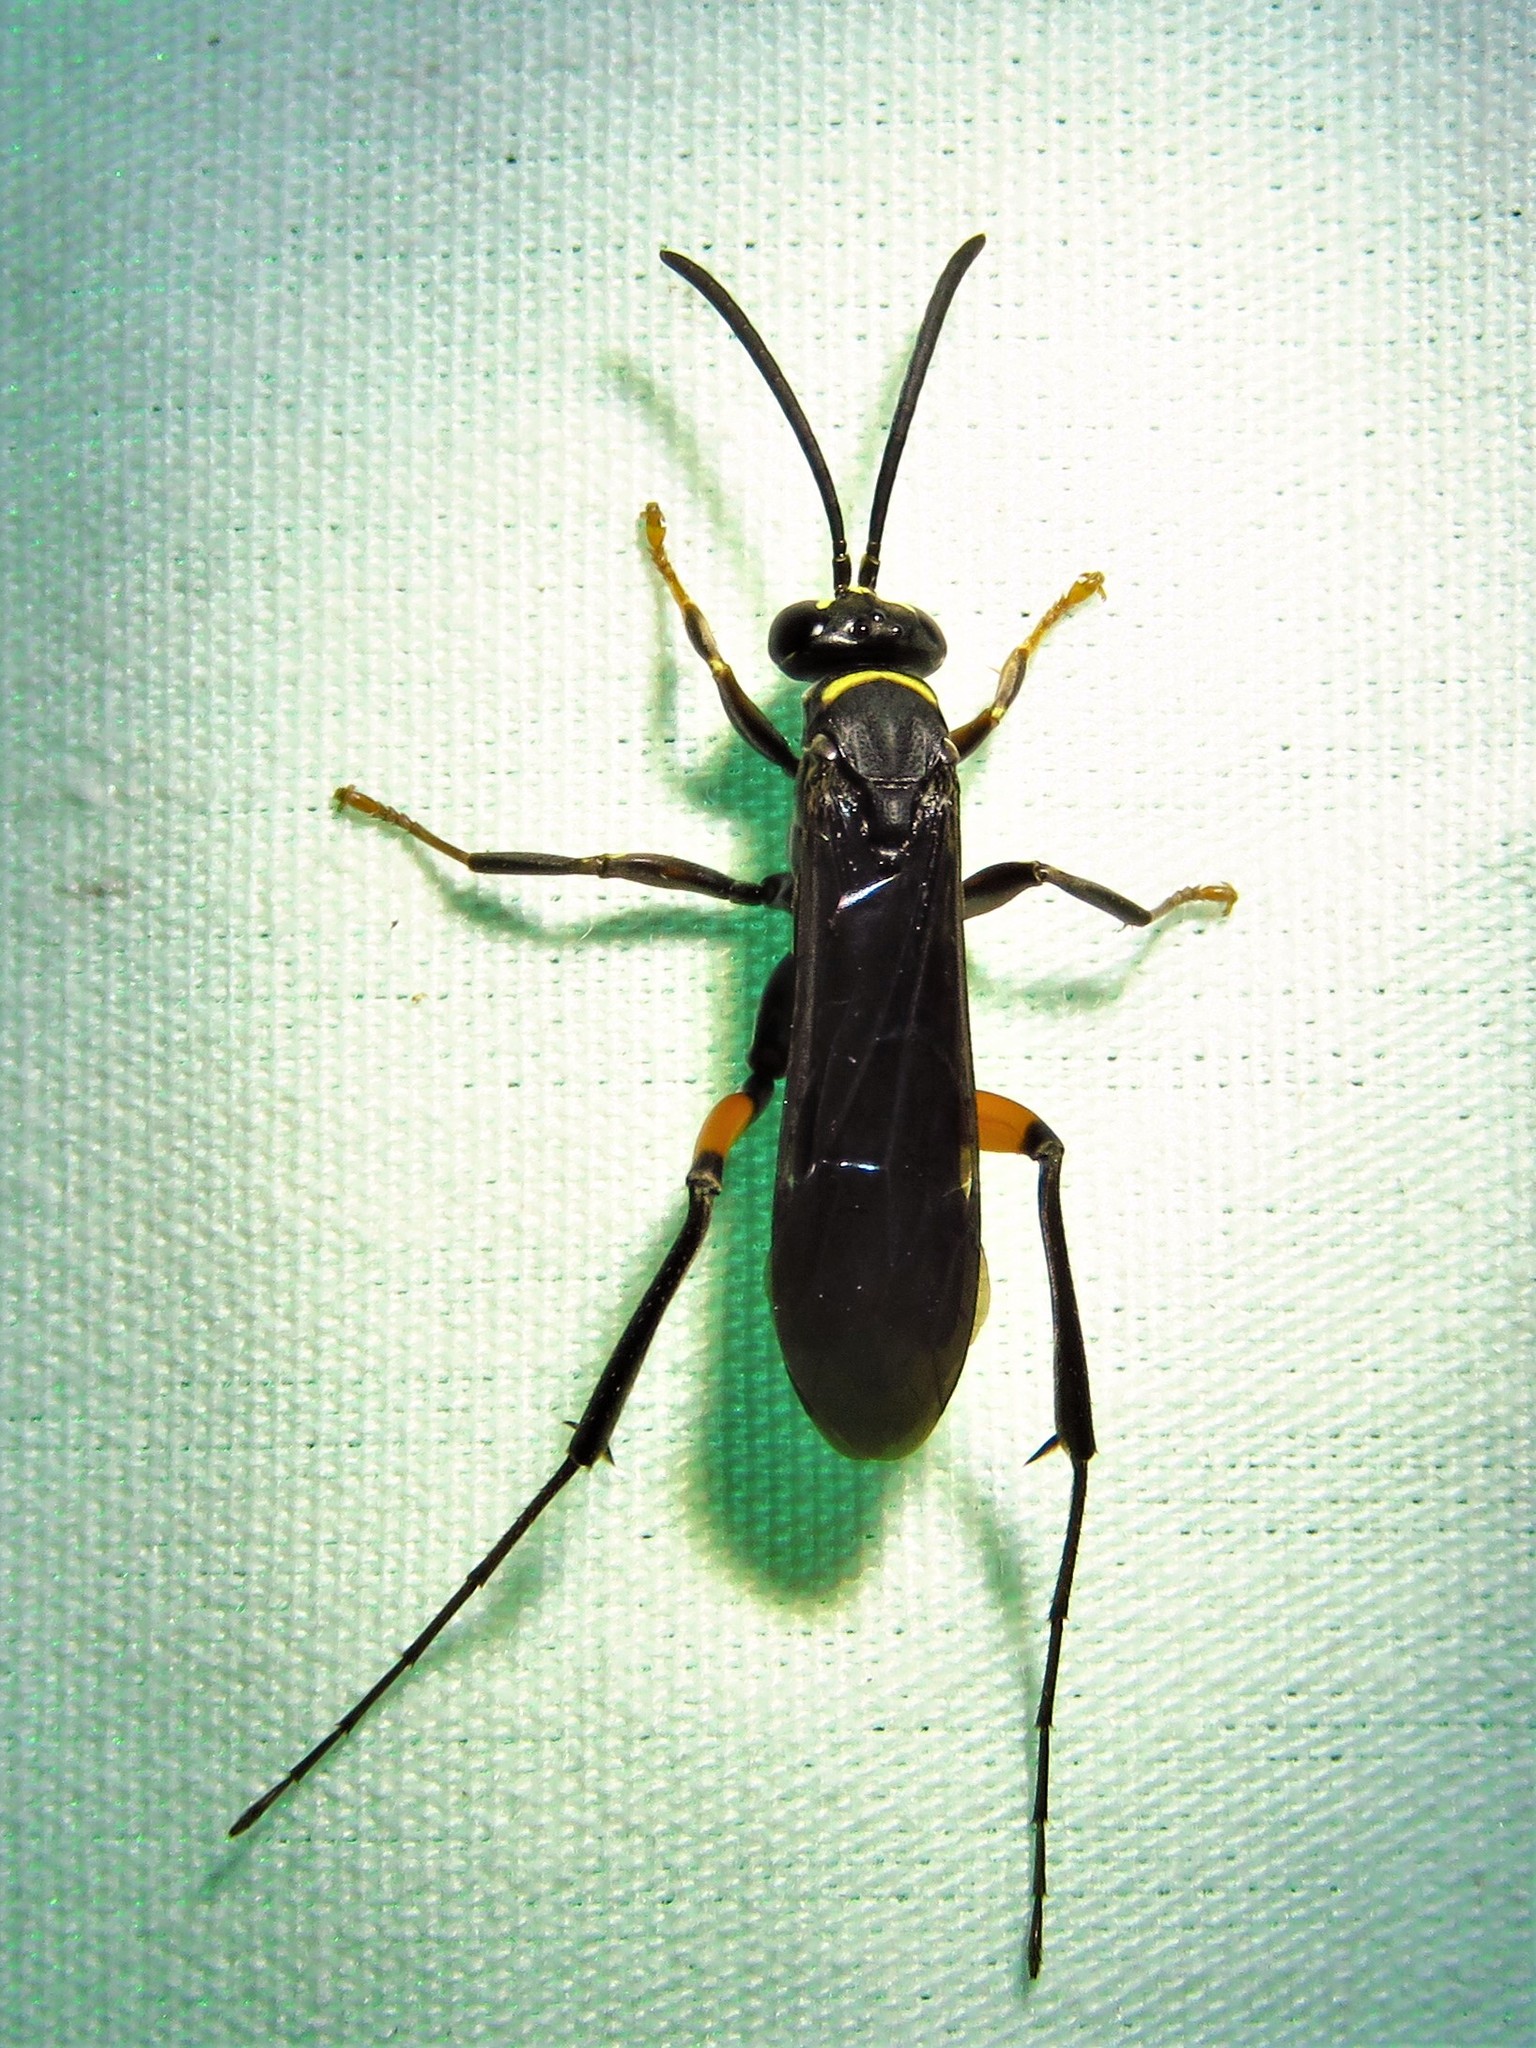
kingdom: Animalia
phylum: Arthropoda
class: Insecta
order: Hymenoptera
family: Pompilidae
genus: Ceropales
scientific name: Ceropales bipunctata
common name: Two-speckled cuckoo spider wasp
